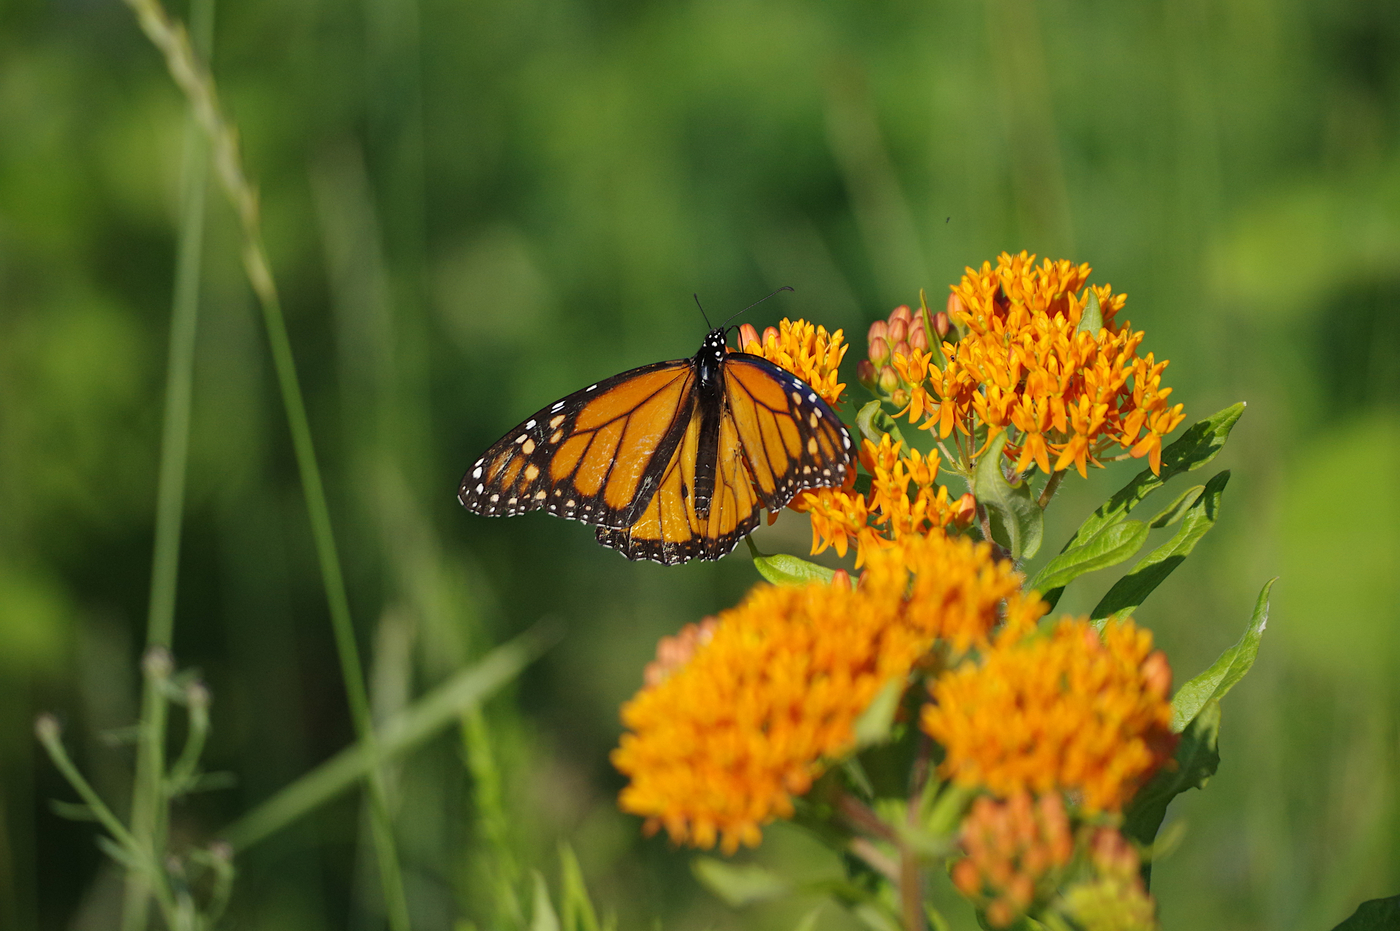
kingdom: Animalia
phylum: Arthropoda
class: Insecta
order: Lepidoptera
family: Nymphalidae
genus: Danaus
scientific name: Danaus plexippus
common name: Monarch
